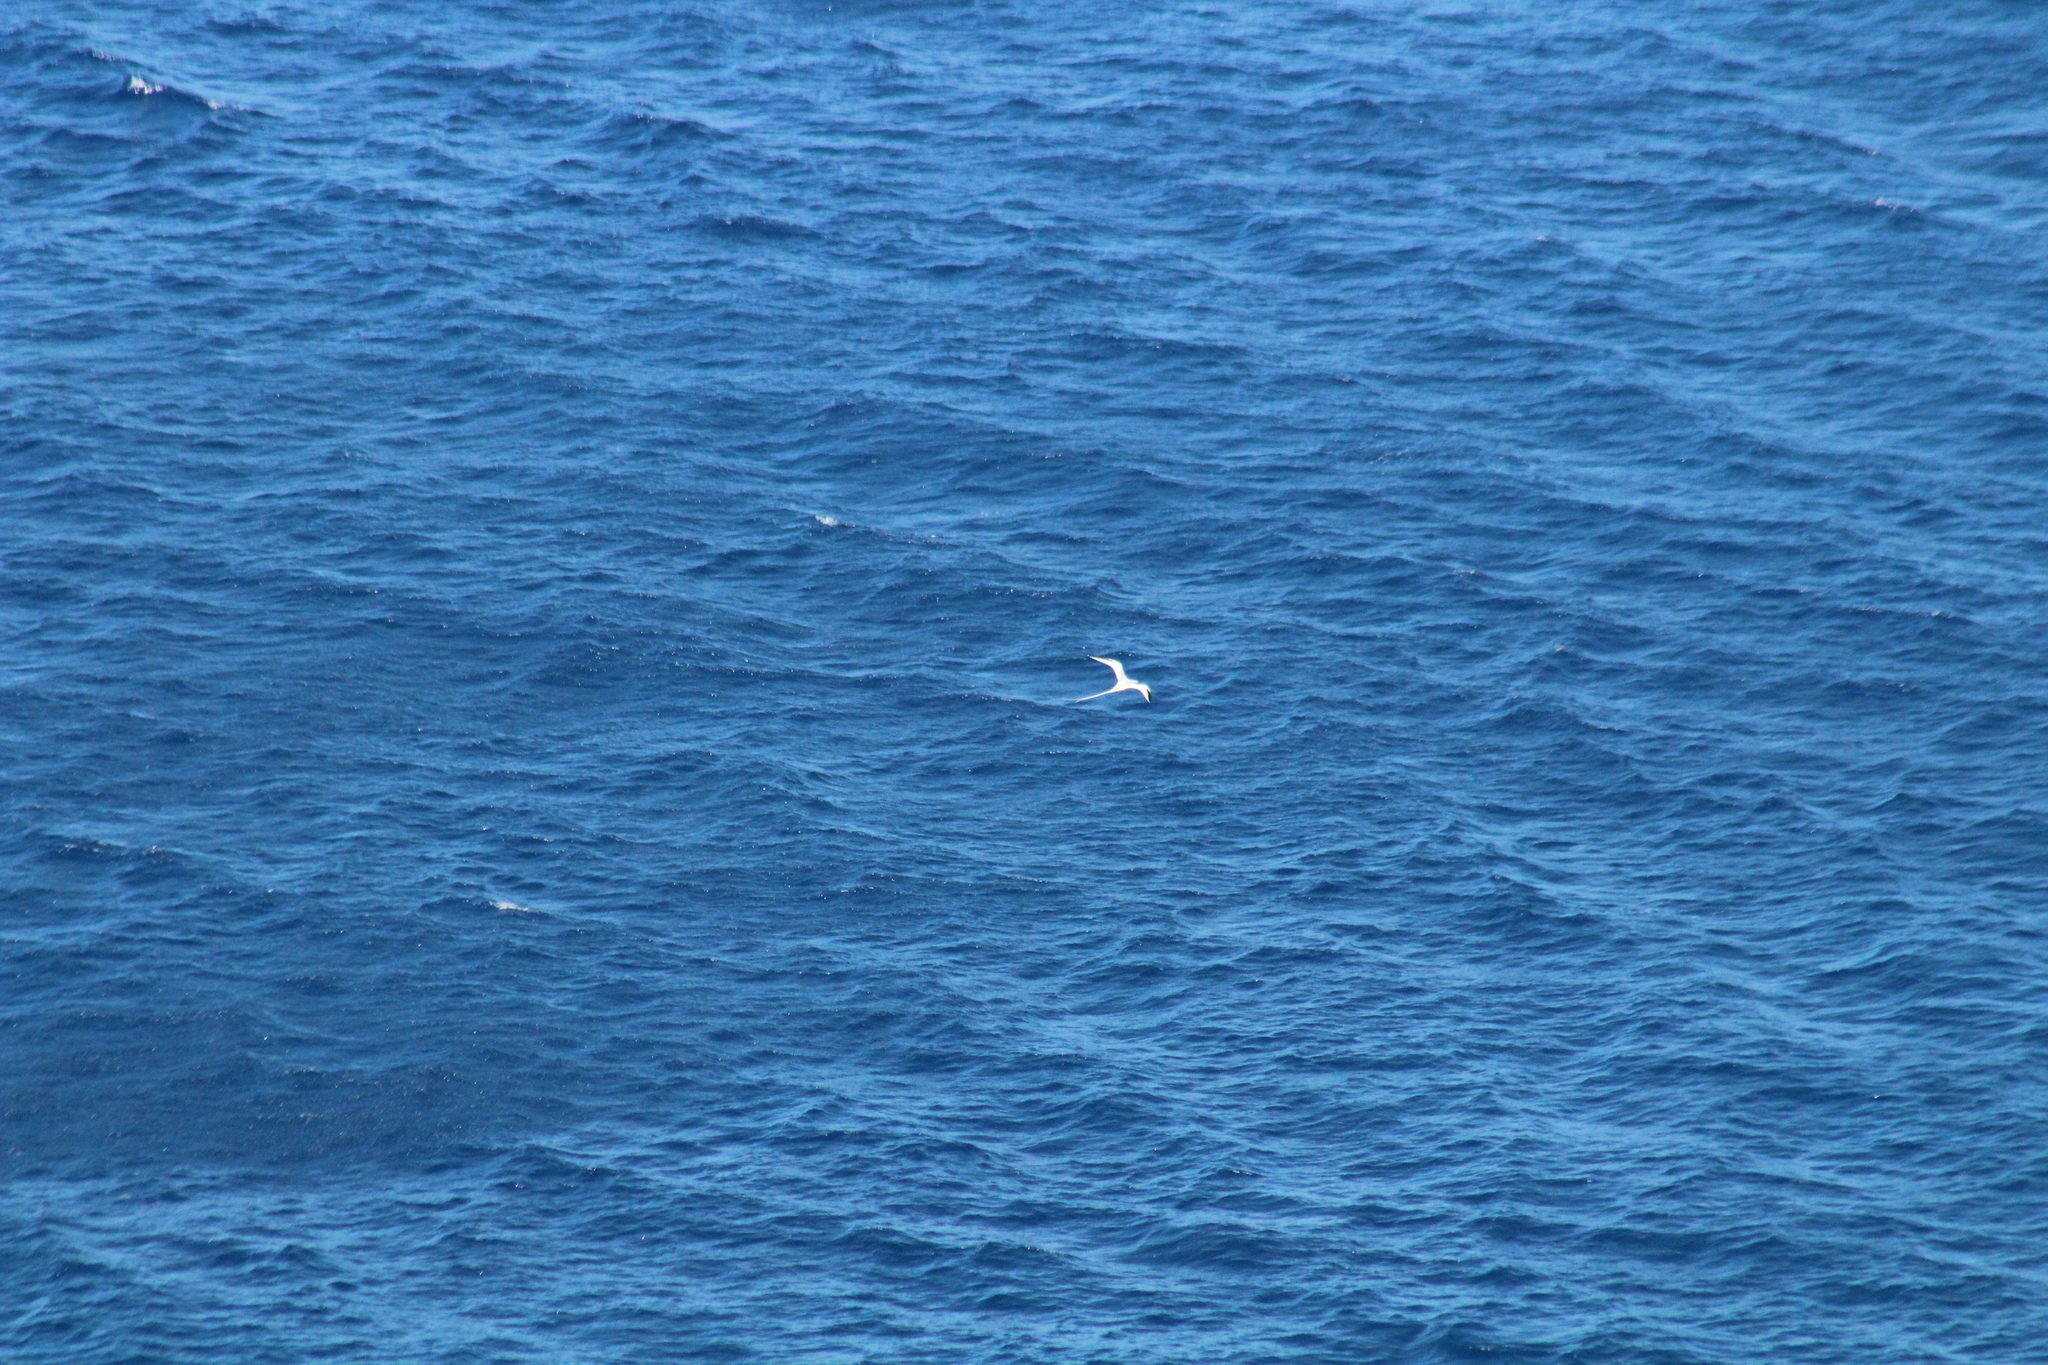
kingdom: Animalia
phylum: Chordata
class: Aves
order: Phaethontiformes
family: Phaethontidae
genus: Phaethon
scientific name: Phaethon aethereus
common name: Red-billed tropicbird
